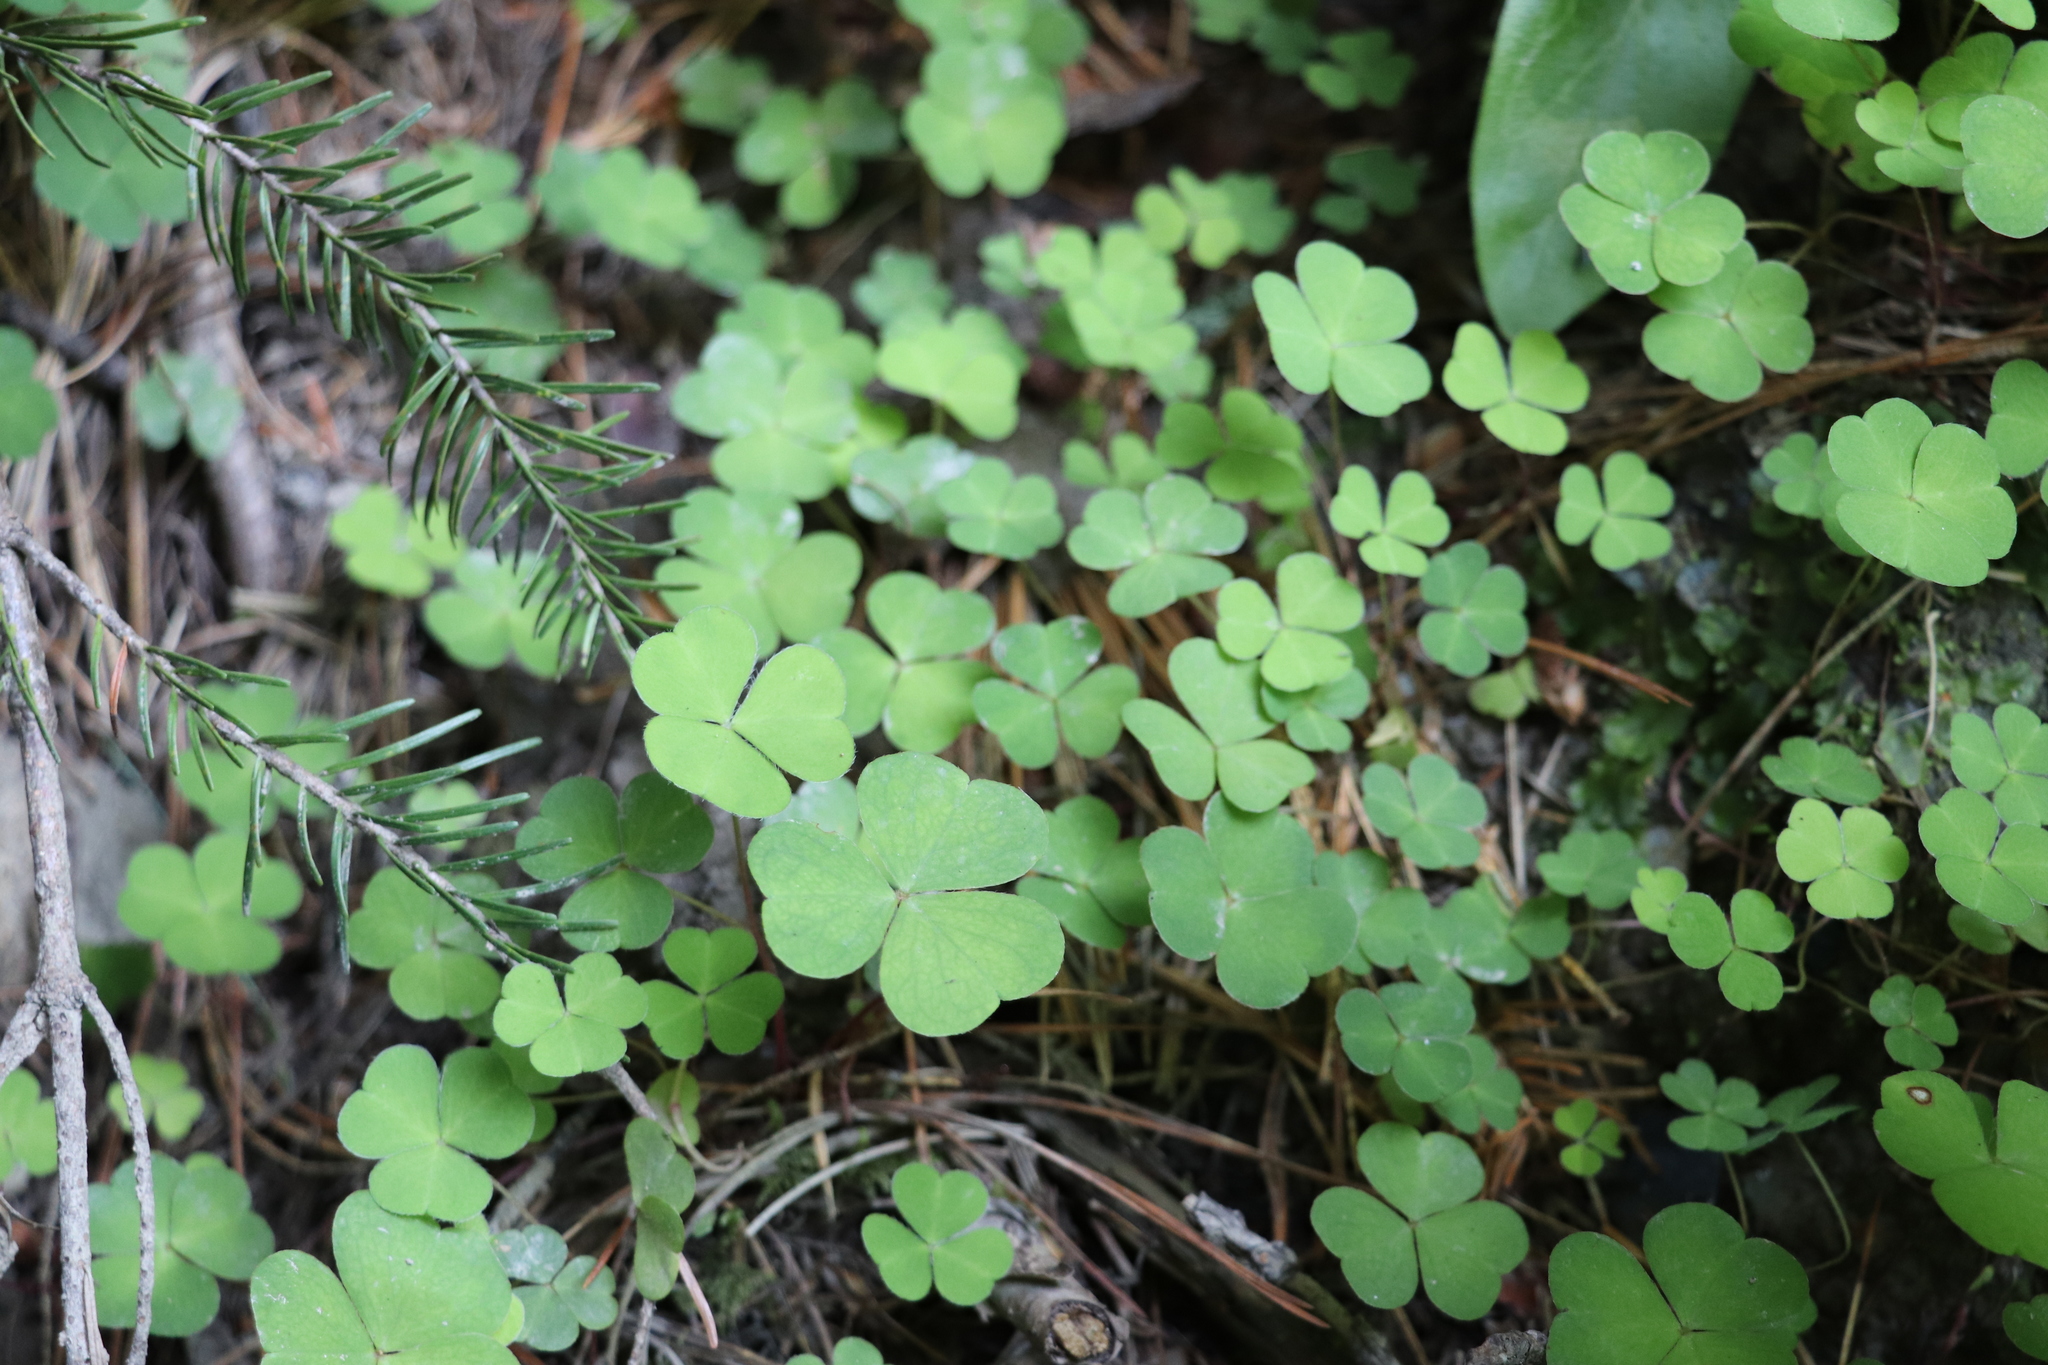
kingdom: Plantae
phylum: Tracheophyta
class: Magnoliopsida
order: Oxalidales
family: Oxalidaceae
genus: Oxalis
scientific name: Oxalis acetosella
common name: Wood-sorrel
